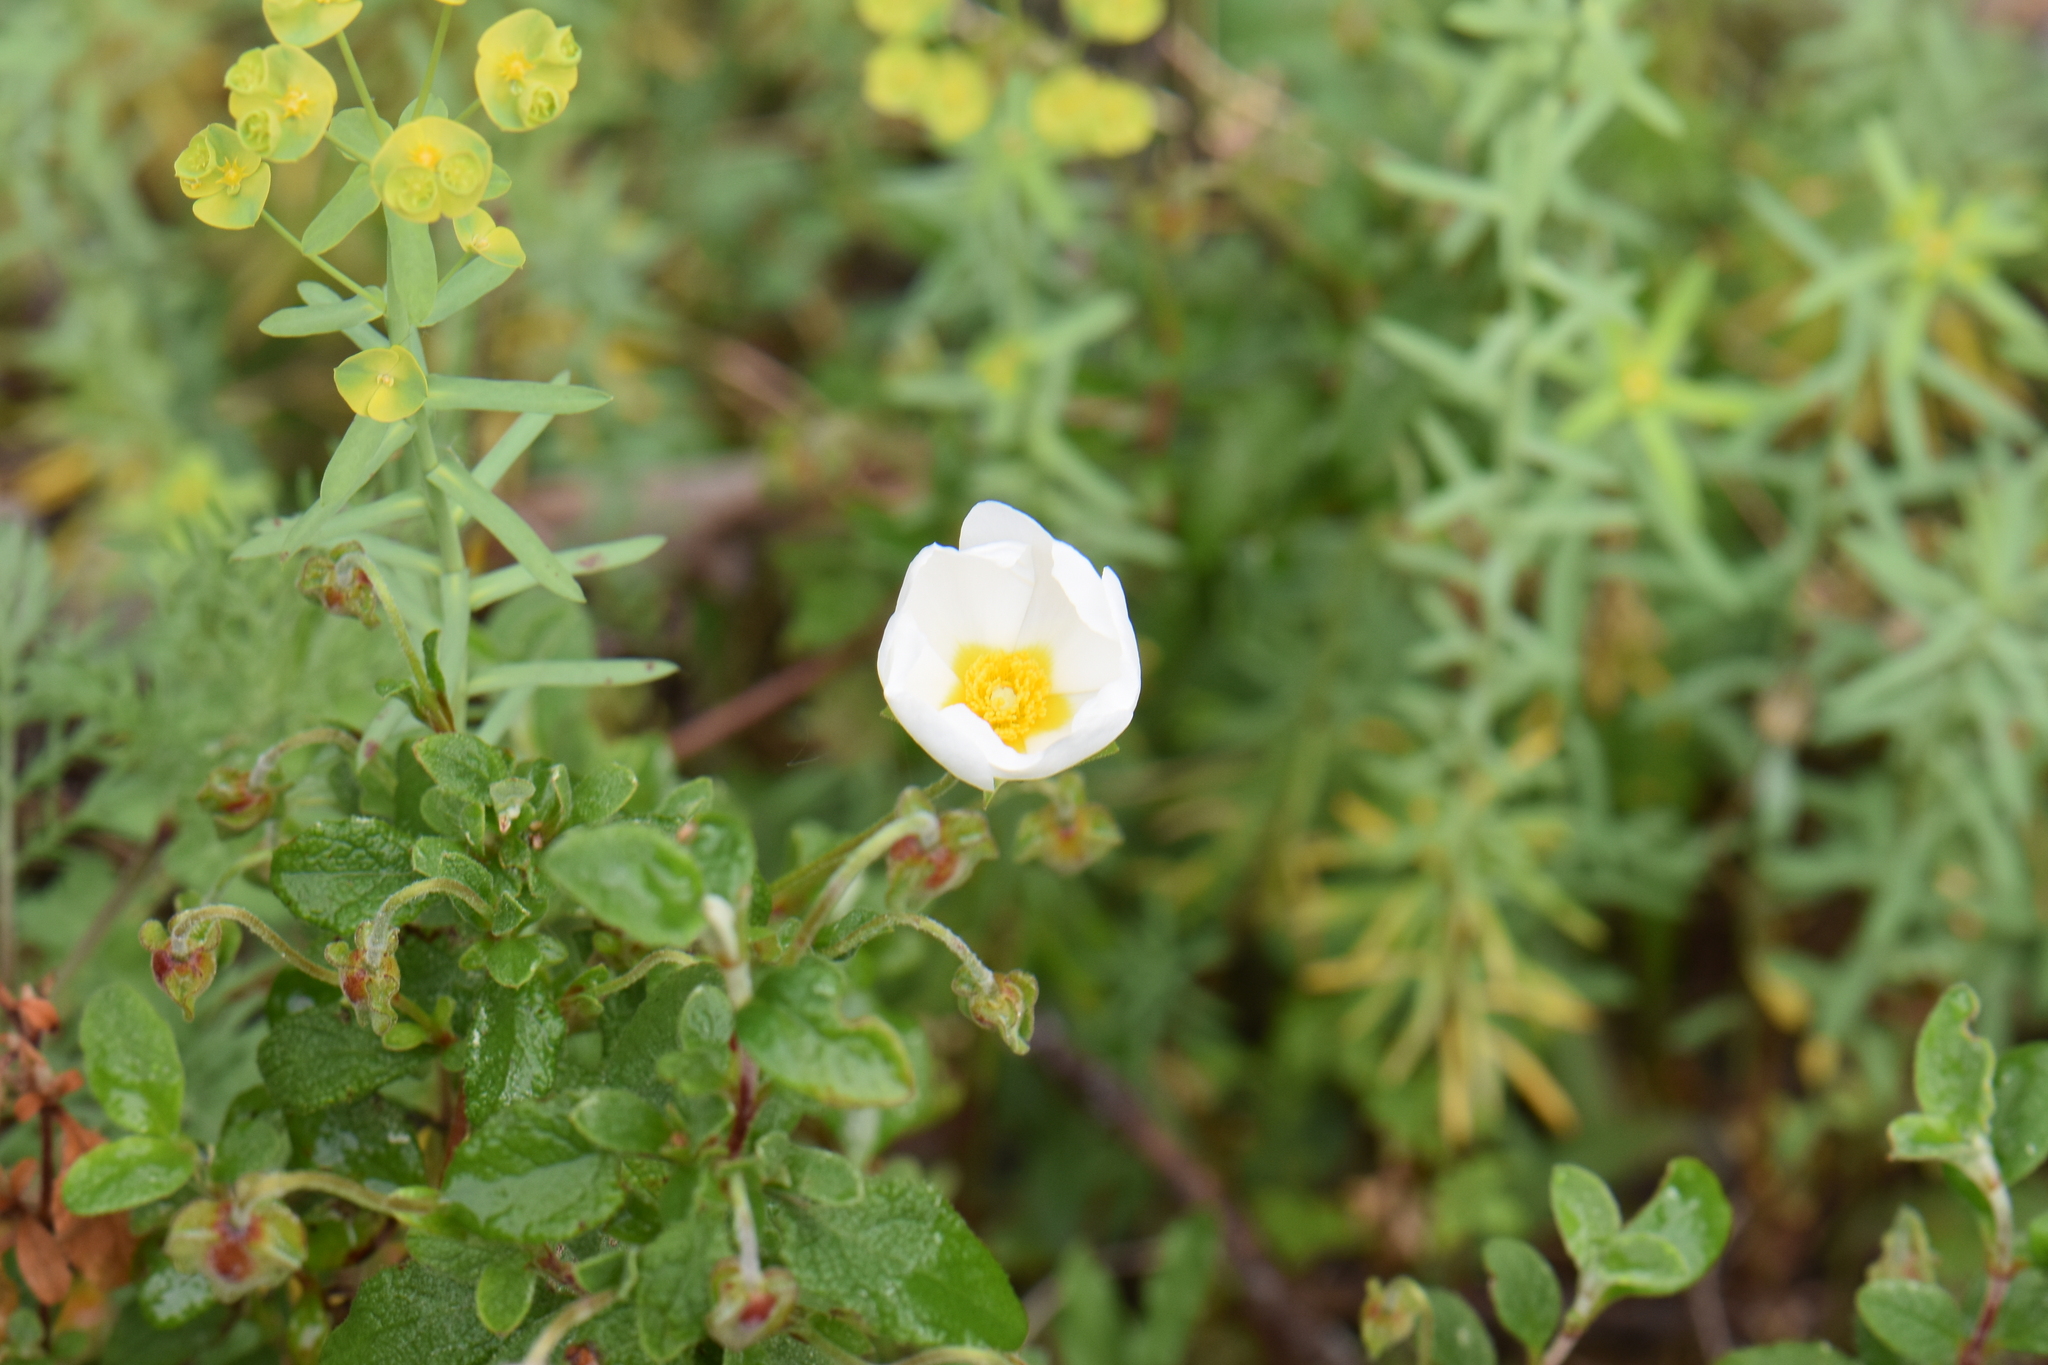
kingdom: Plantae
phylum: Tracheophyta
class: Magnoliopsida
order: Malvales
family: Cistaceae
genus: Cistus
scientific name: Cistus salviifolius
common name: Salvia cistus
